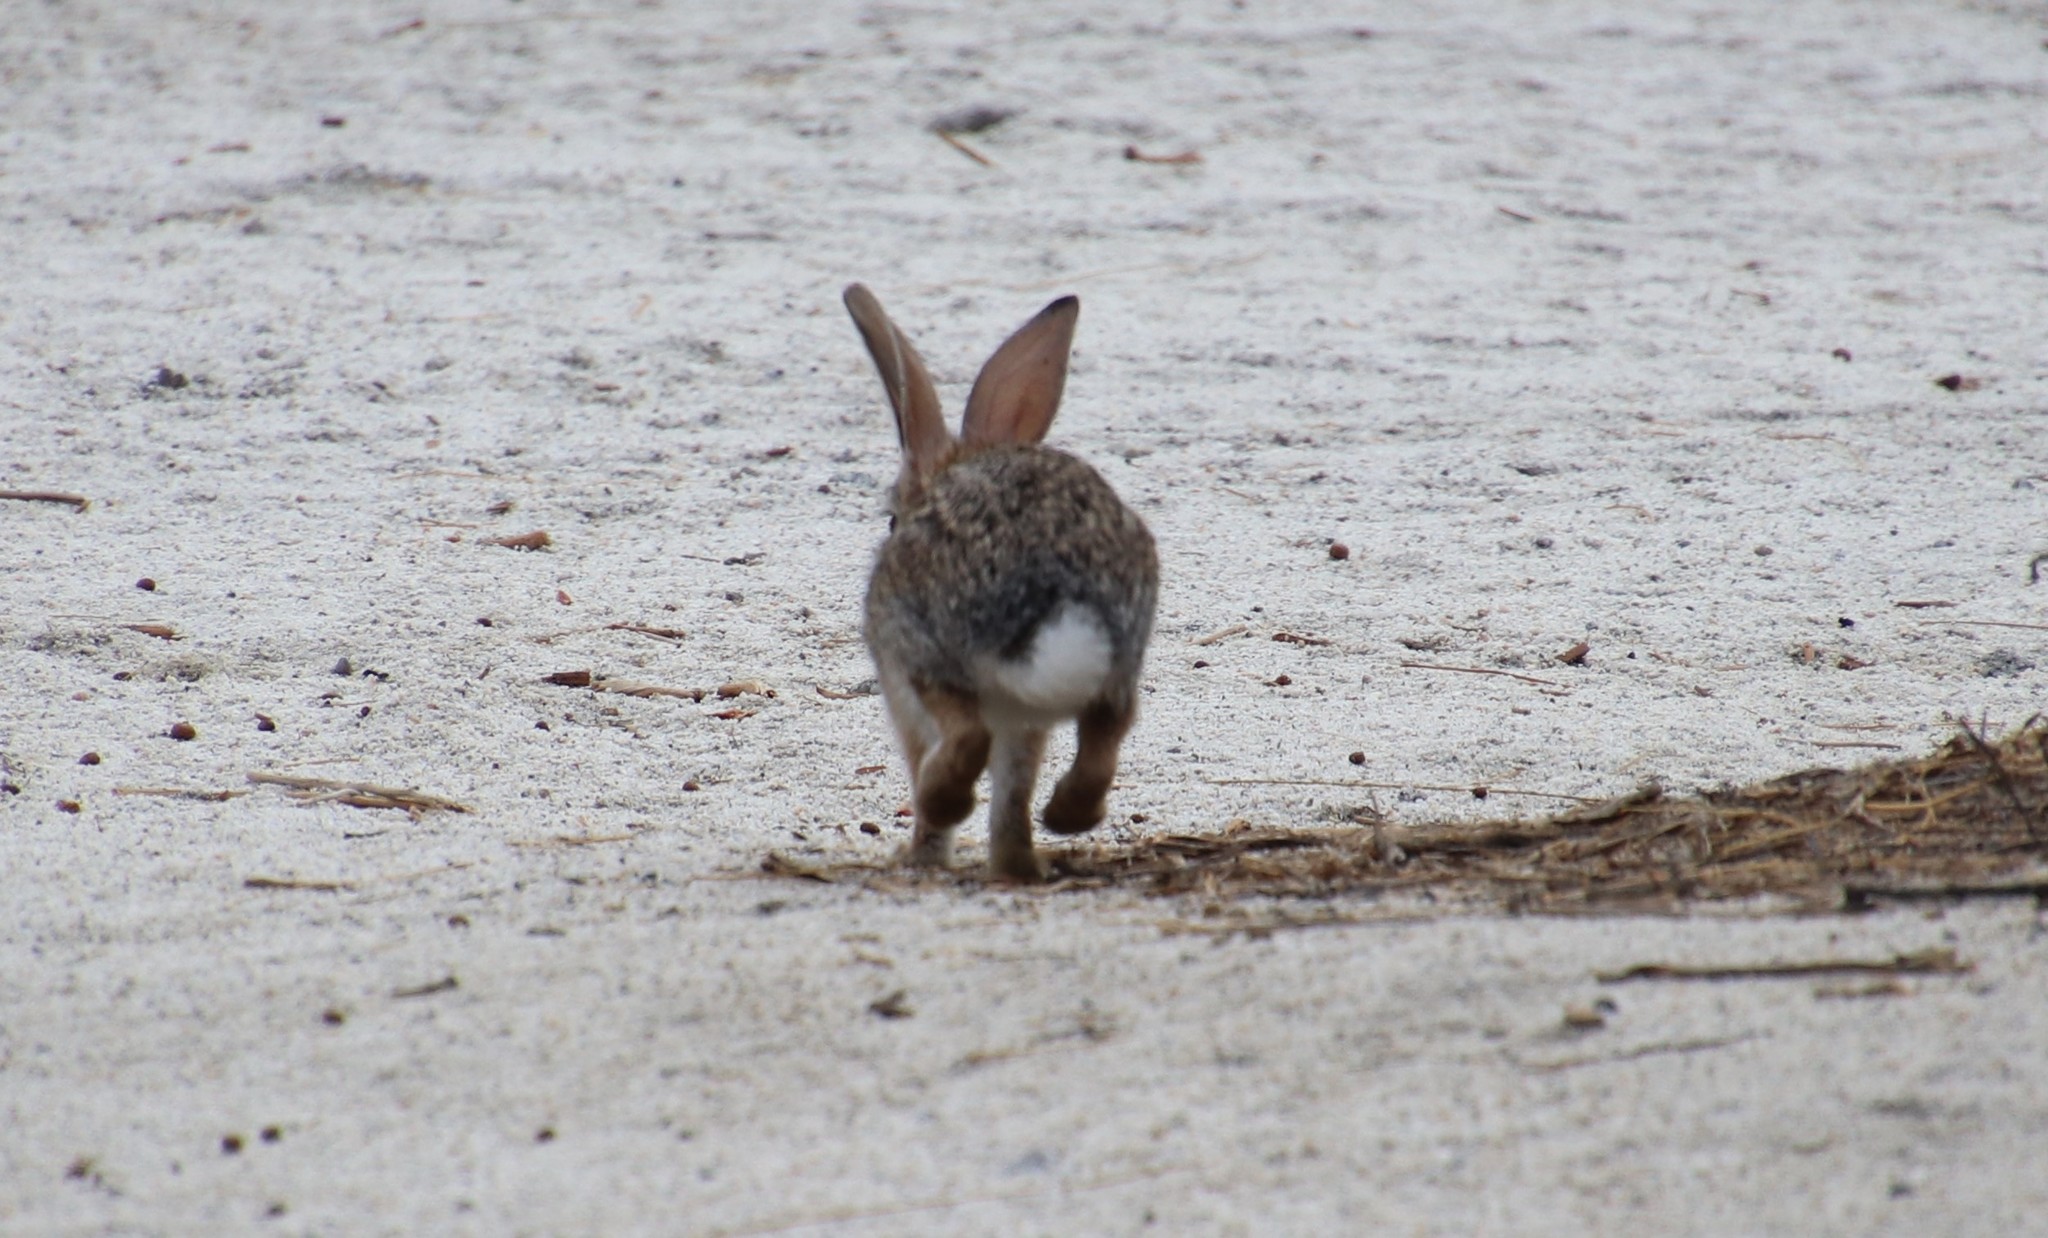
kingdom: Animalia
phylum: Chordata
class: Mammalia
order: Lagomorpha
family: Leporidae
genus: Sylvilagus
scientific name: Sylvilagus audubonii
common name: Desert cottontail
